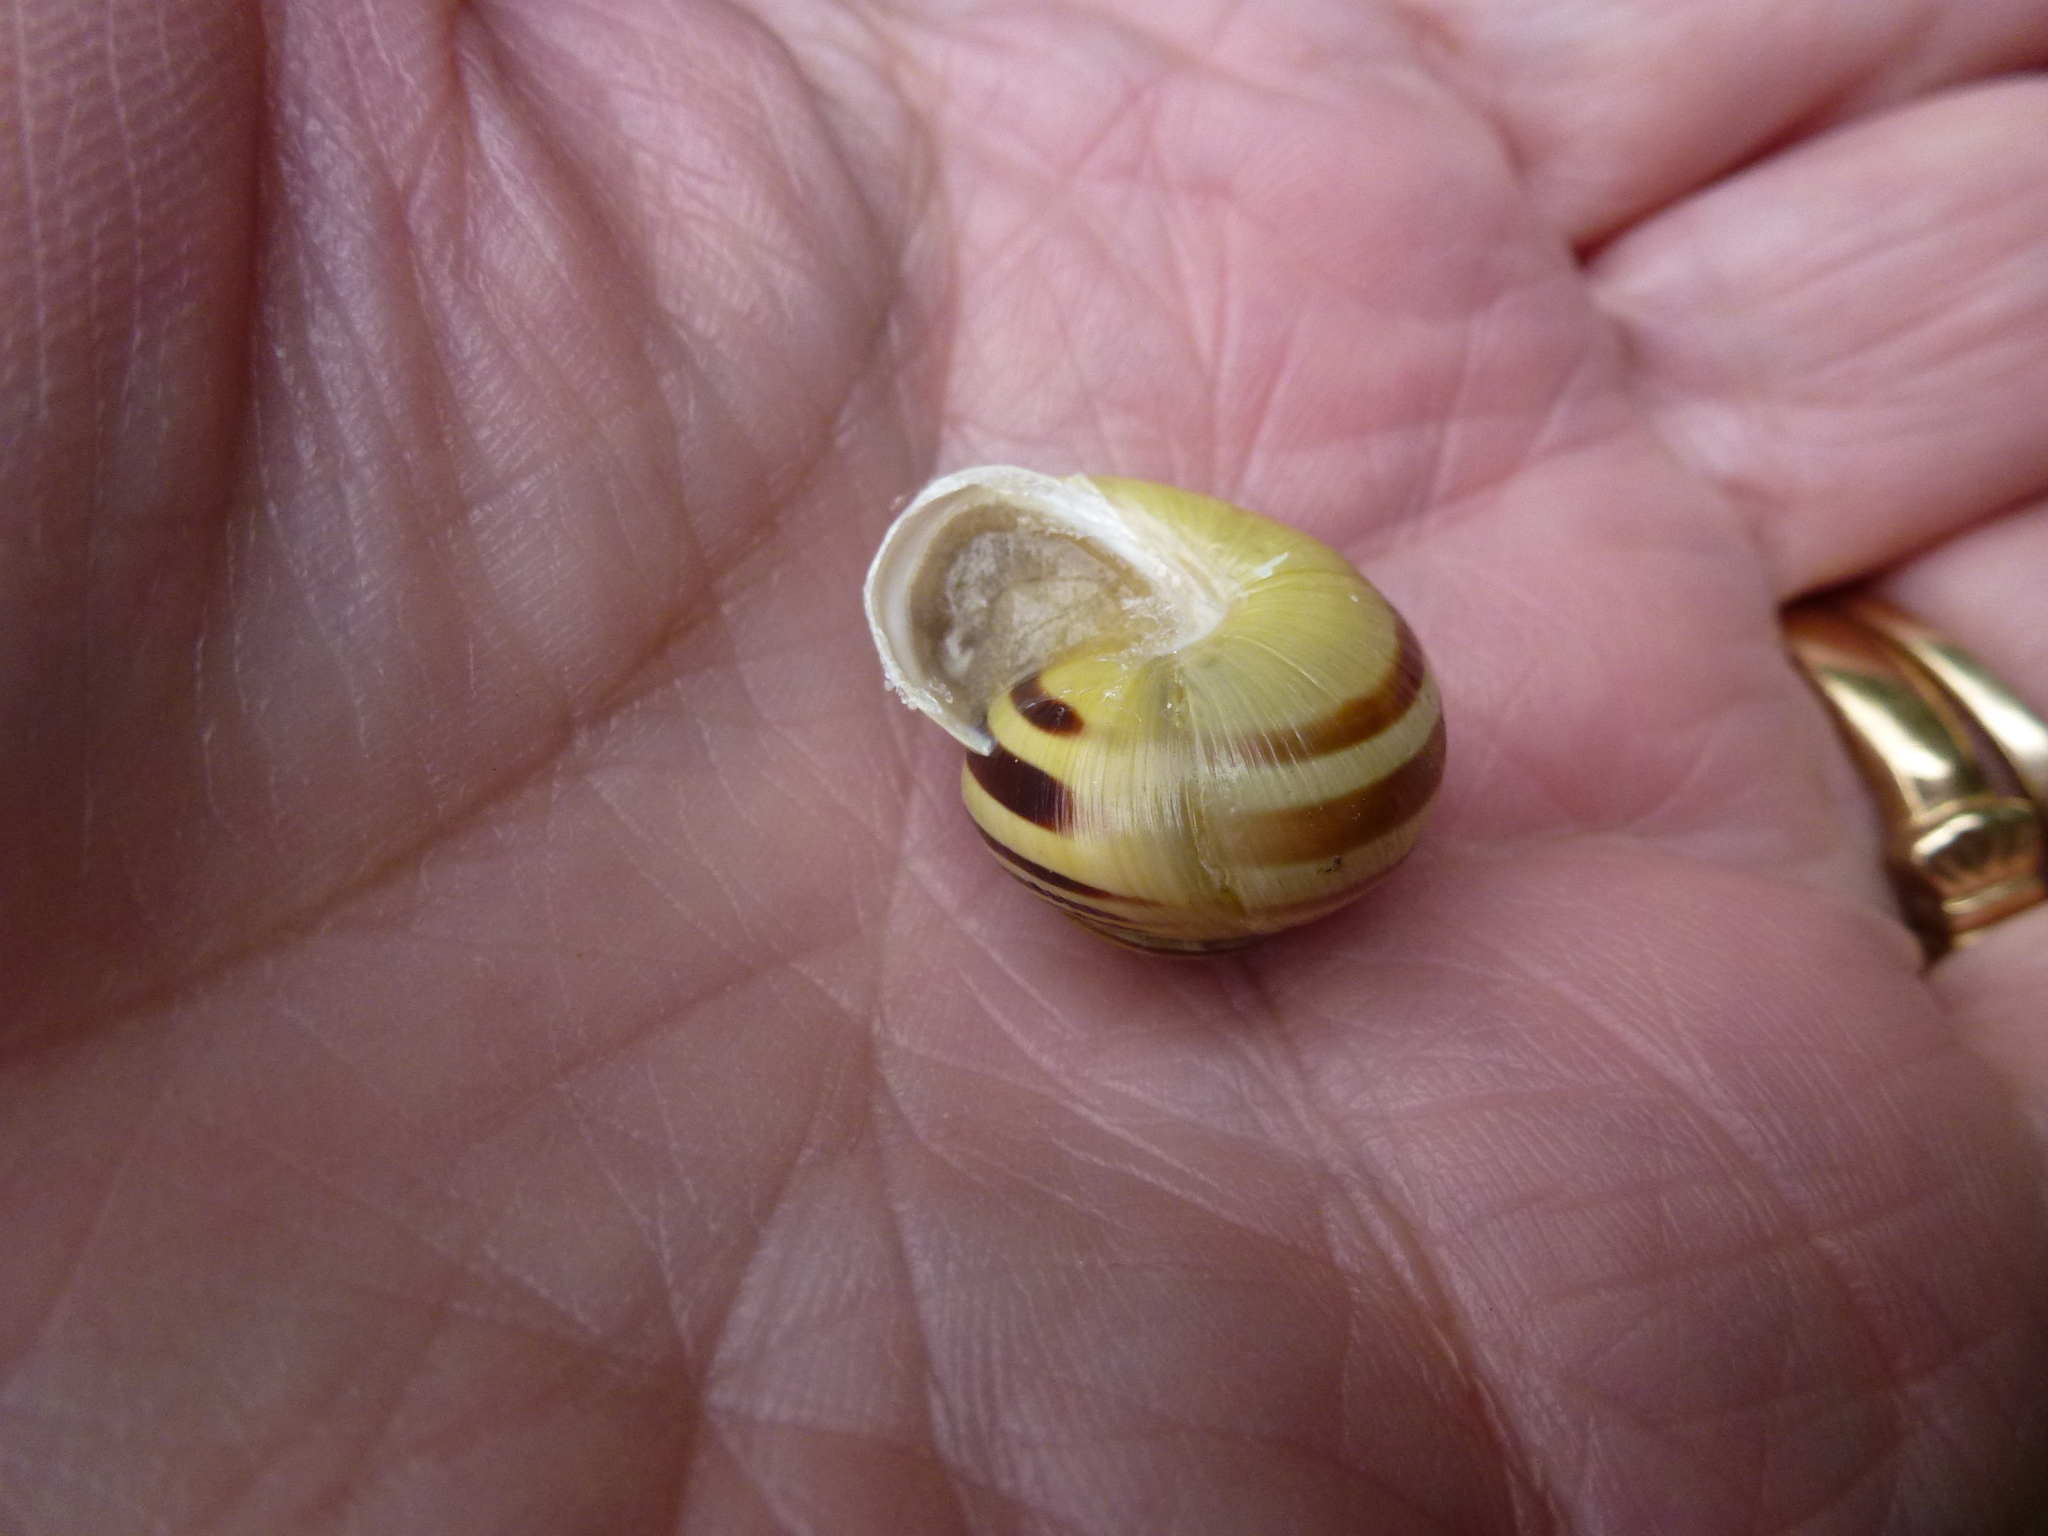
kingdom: Animalia
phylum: Mollusca
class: Gastropoda
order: Stylommatophora
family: Helicidae
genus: Cepaea
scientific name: Cepaea hortensis
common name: White-lip gardensnail
